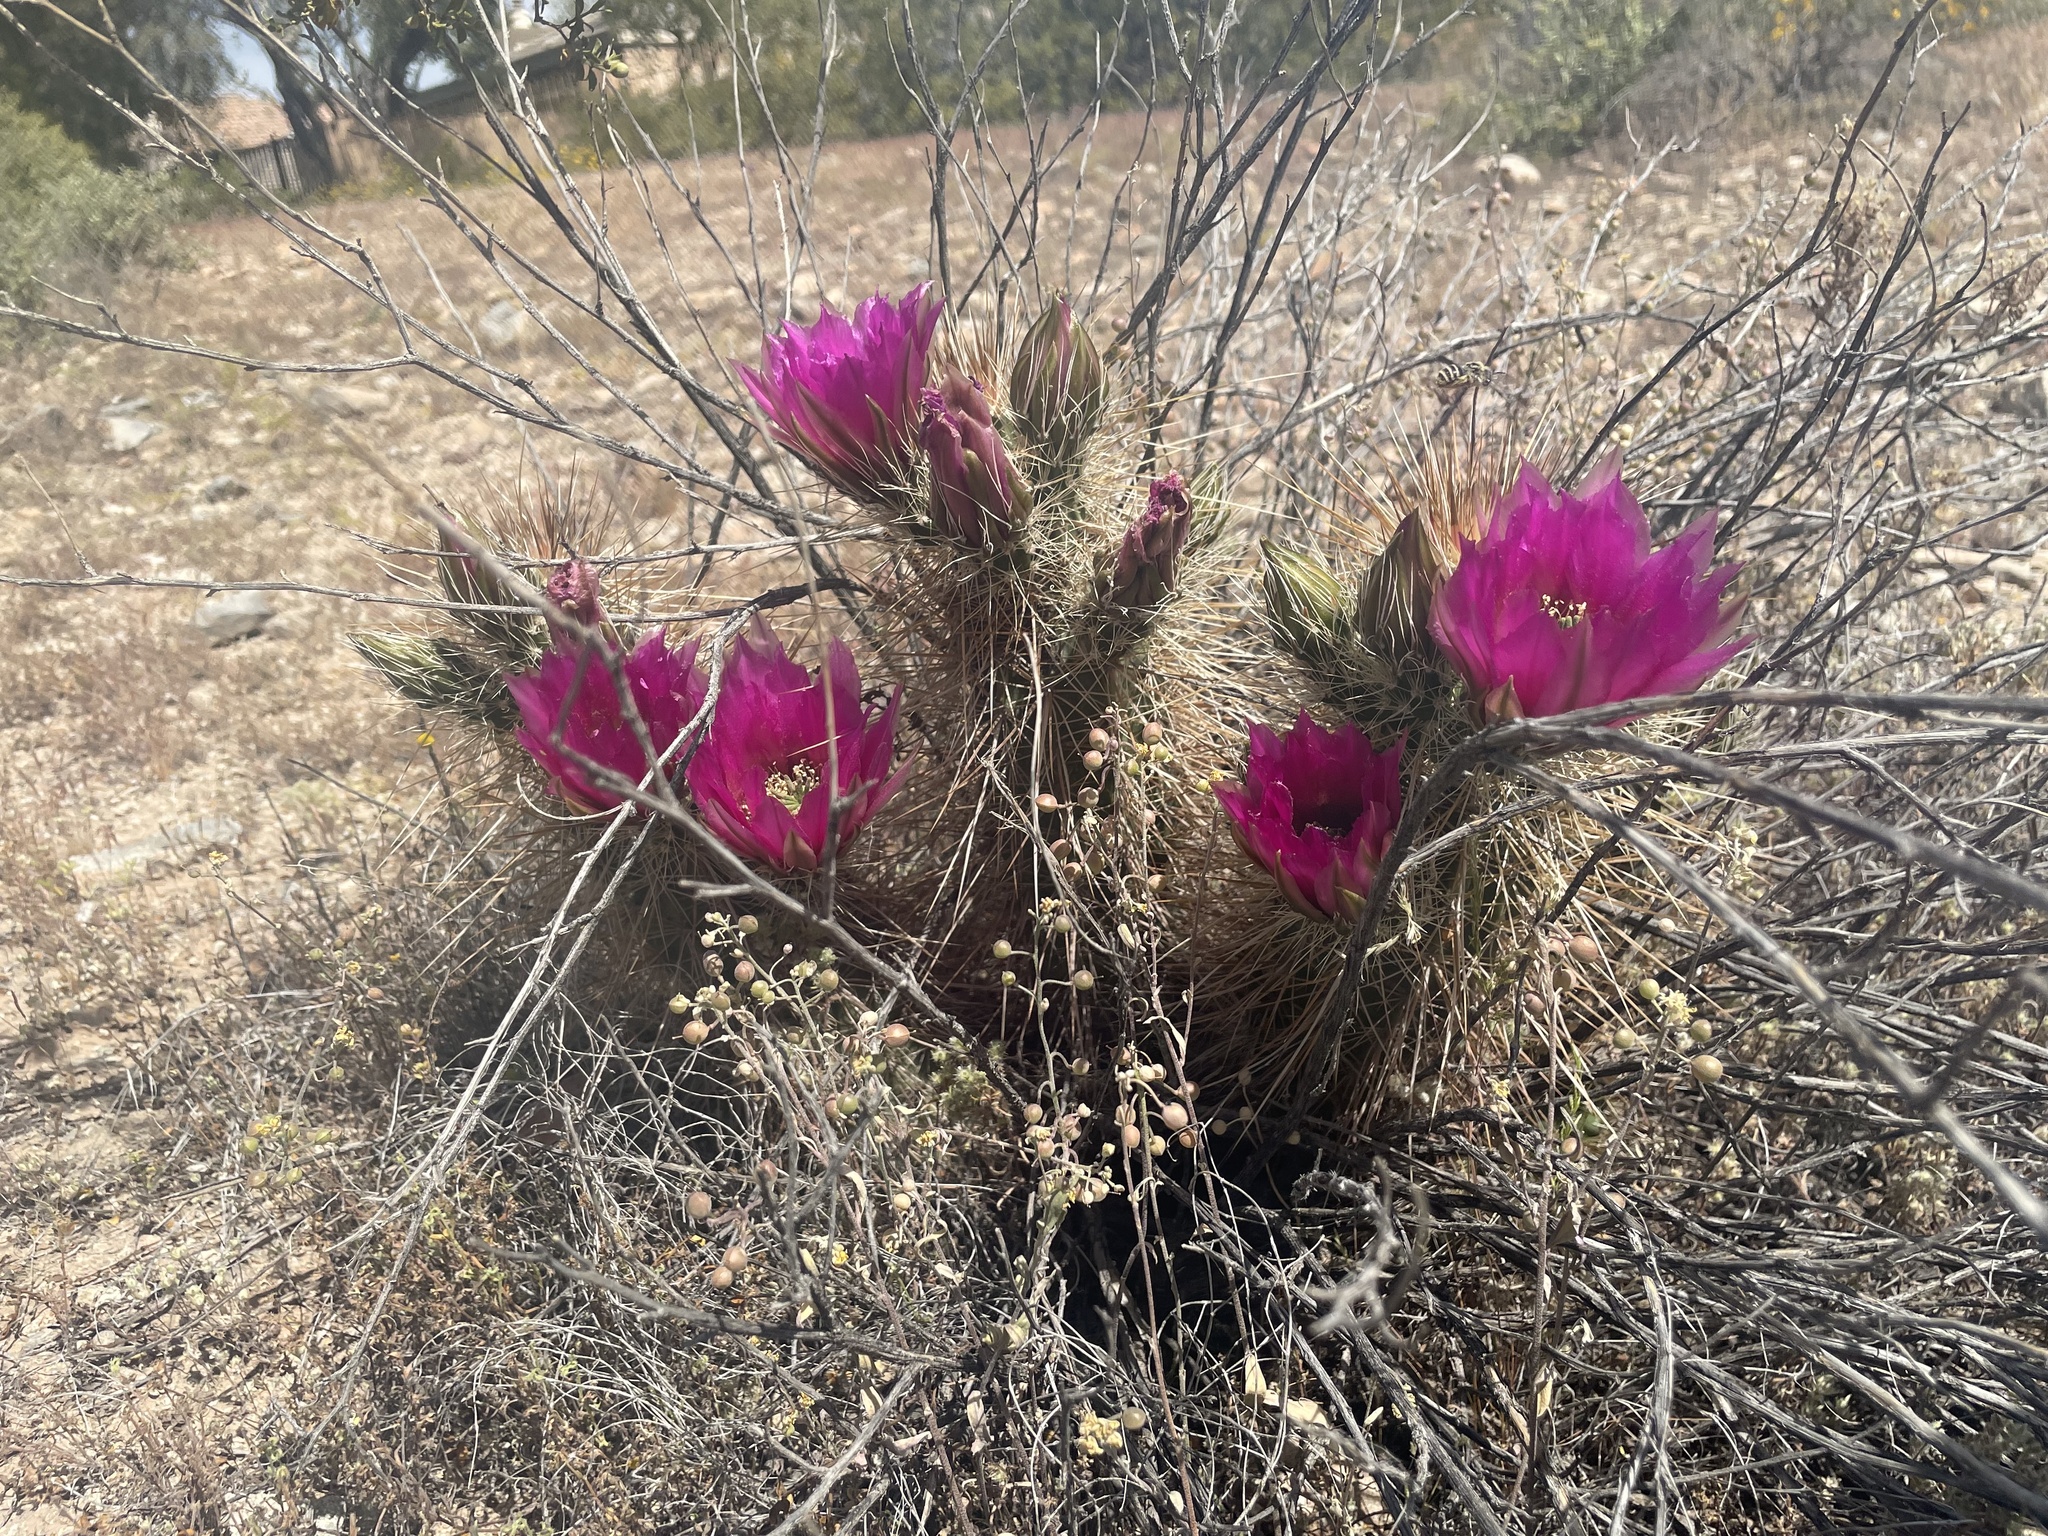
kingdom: Plantae
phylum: Tracheophyta
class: Magnoliopsida
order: Caryophyllales
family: Cactaceae
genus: Echinocereus
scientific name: Echinocereus engelmannii
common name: Engelmann's hedgehog cactus
